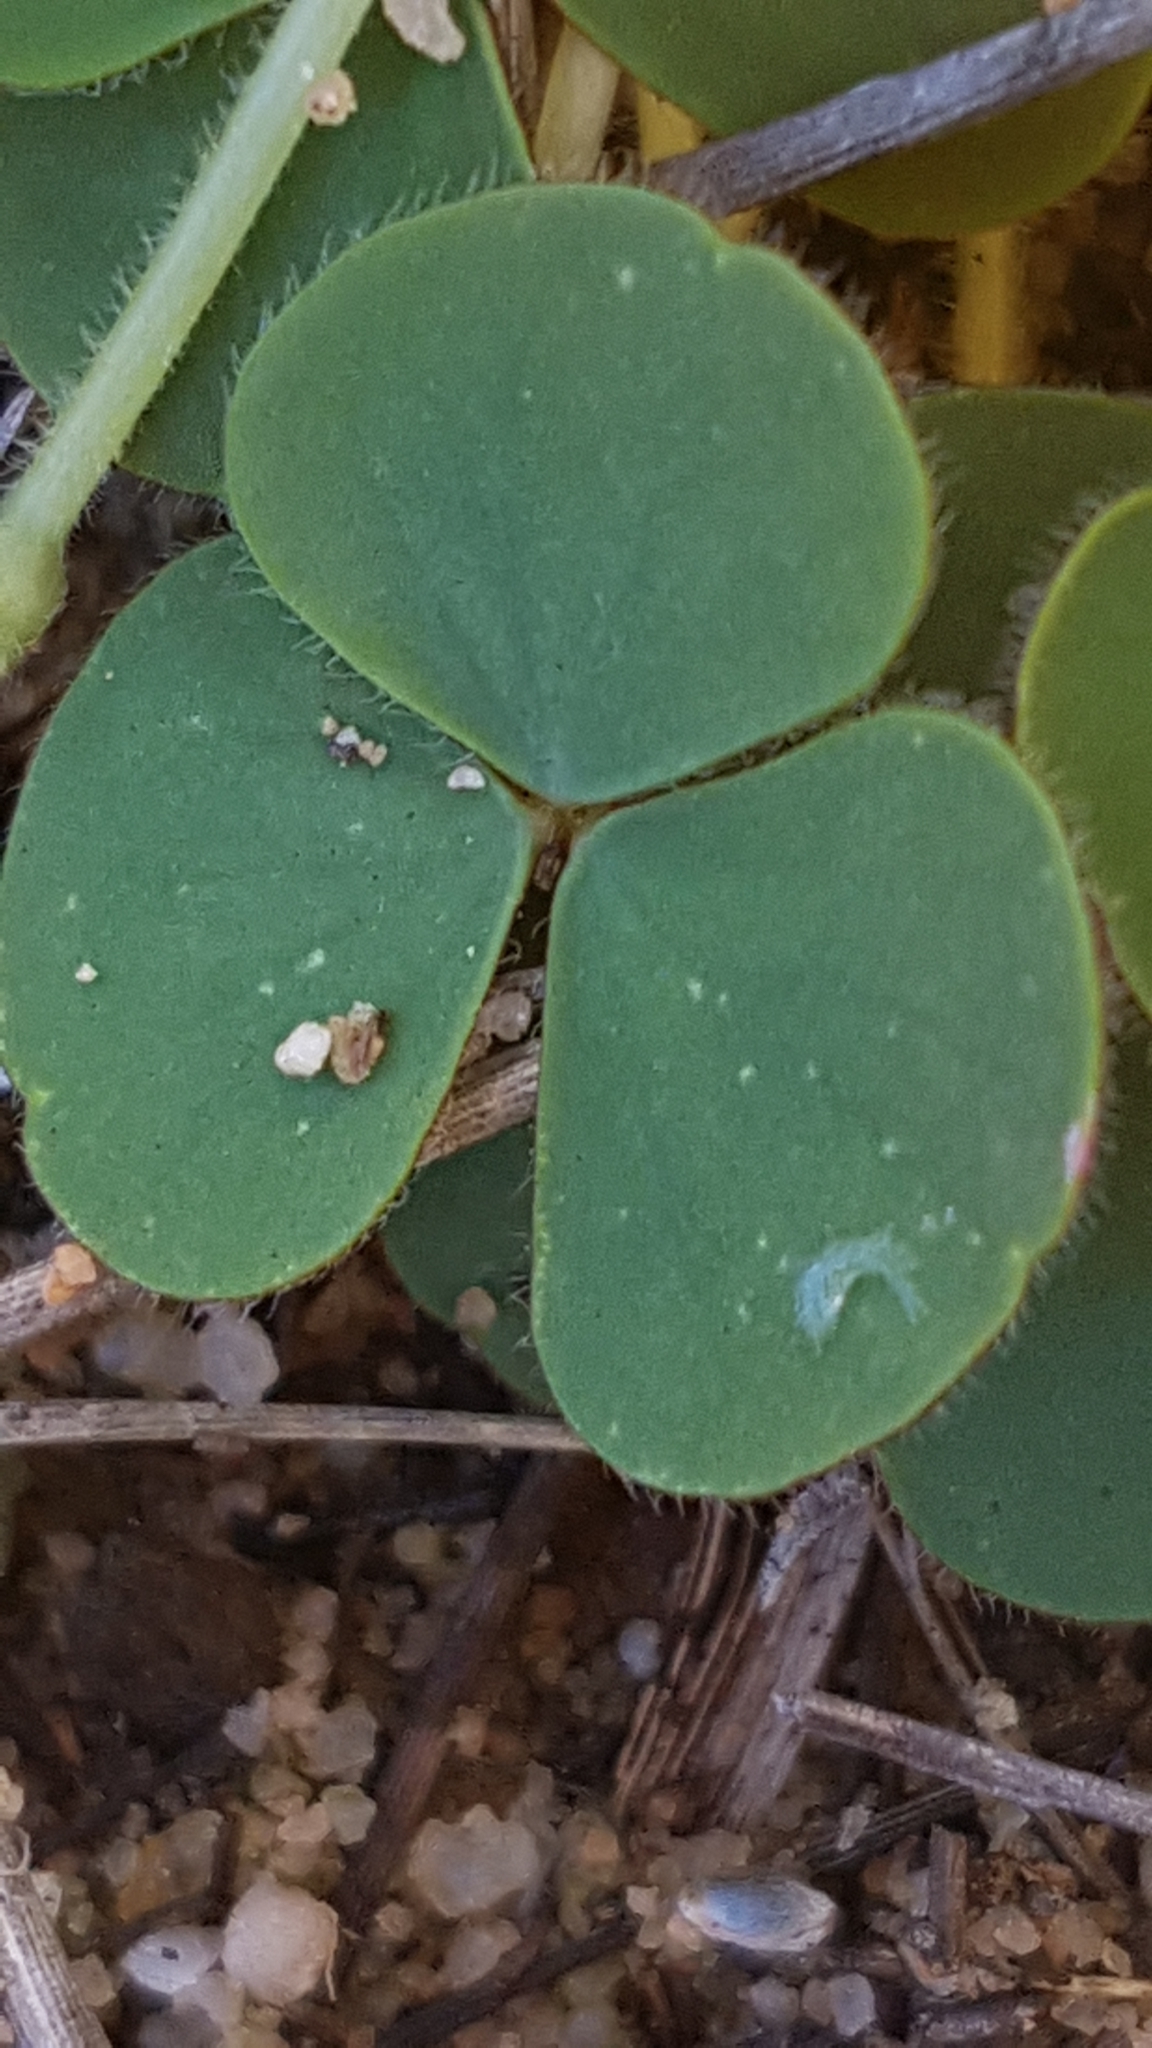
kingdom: Plantae
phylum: Tracheophyta
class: Magnoliopsida
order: Oxalidales
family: Oxalidaceae
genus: Oxalis
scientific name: Oxalis luteola
